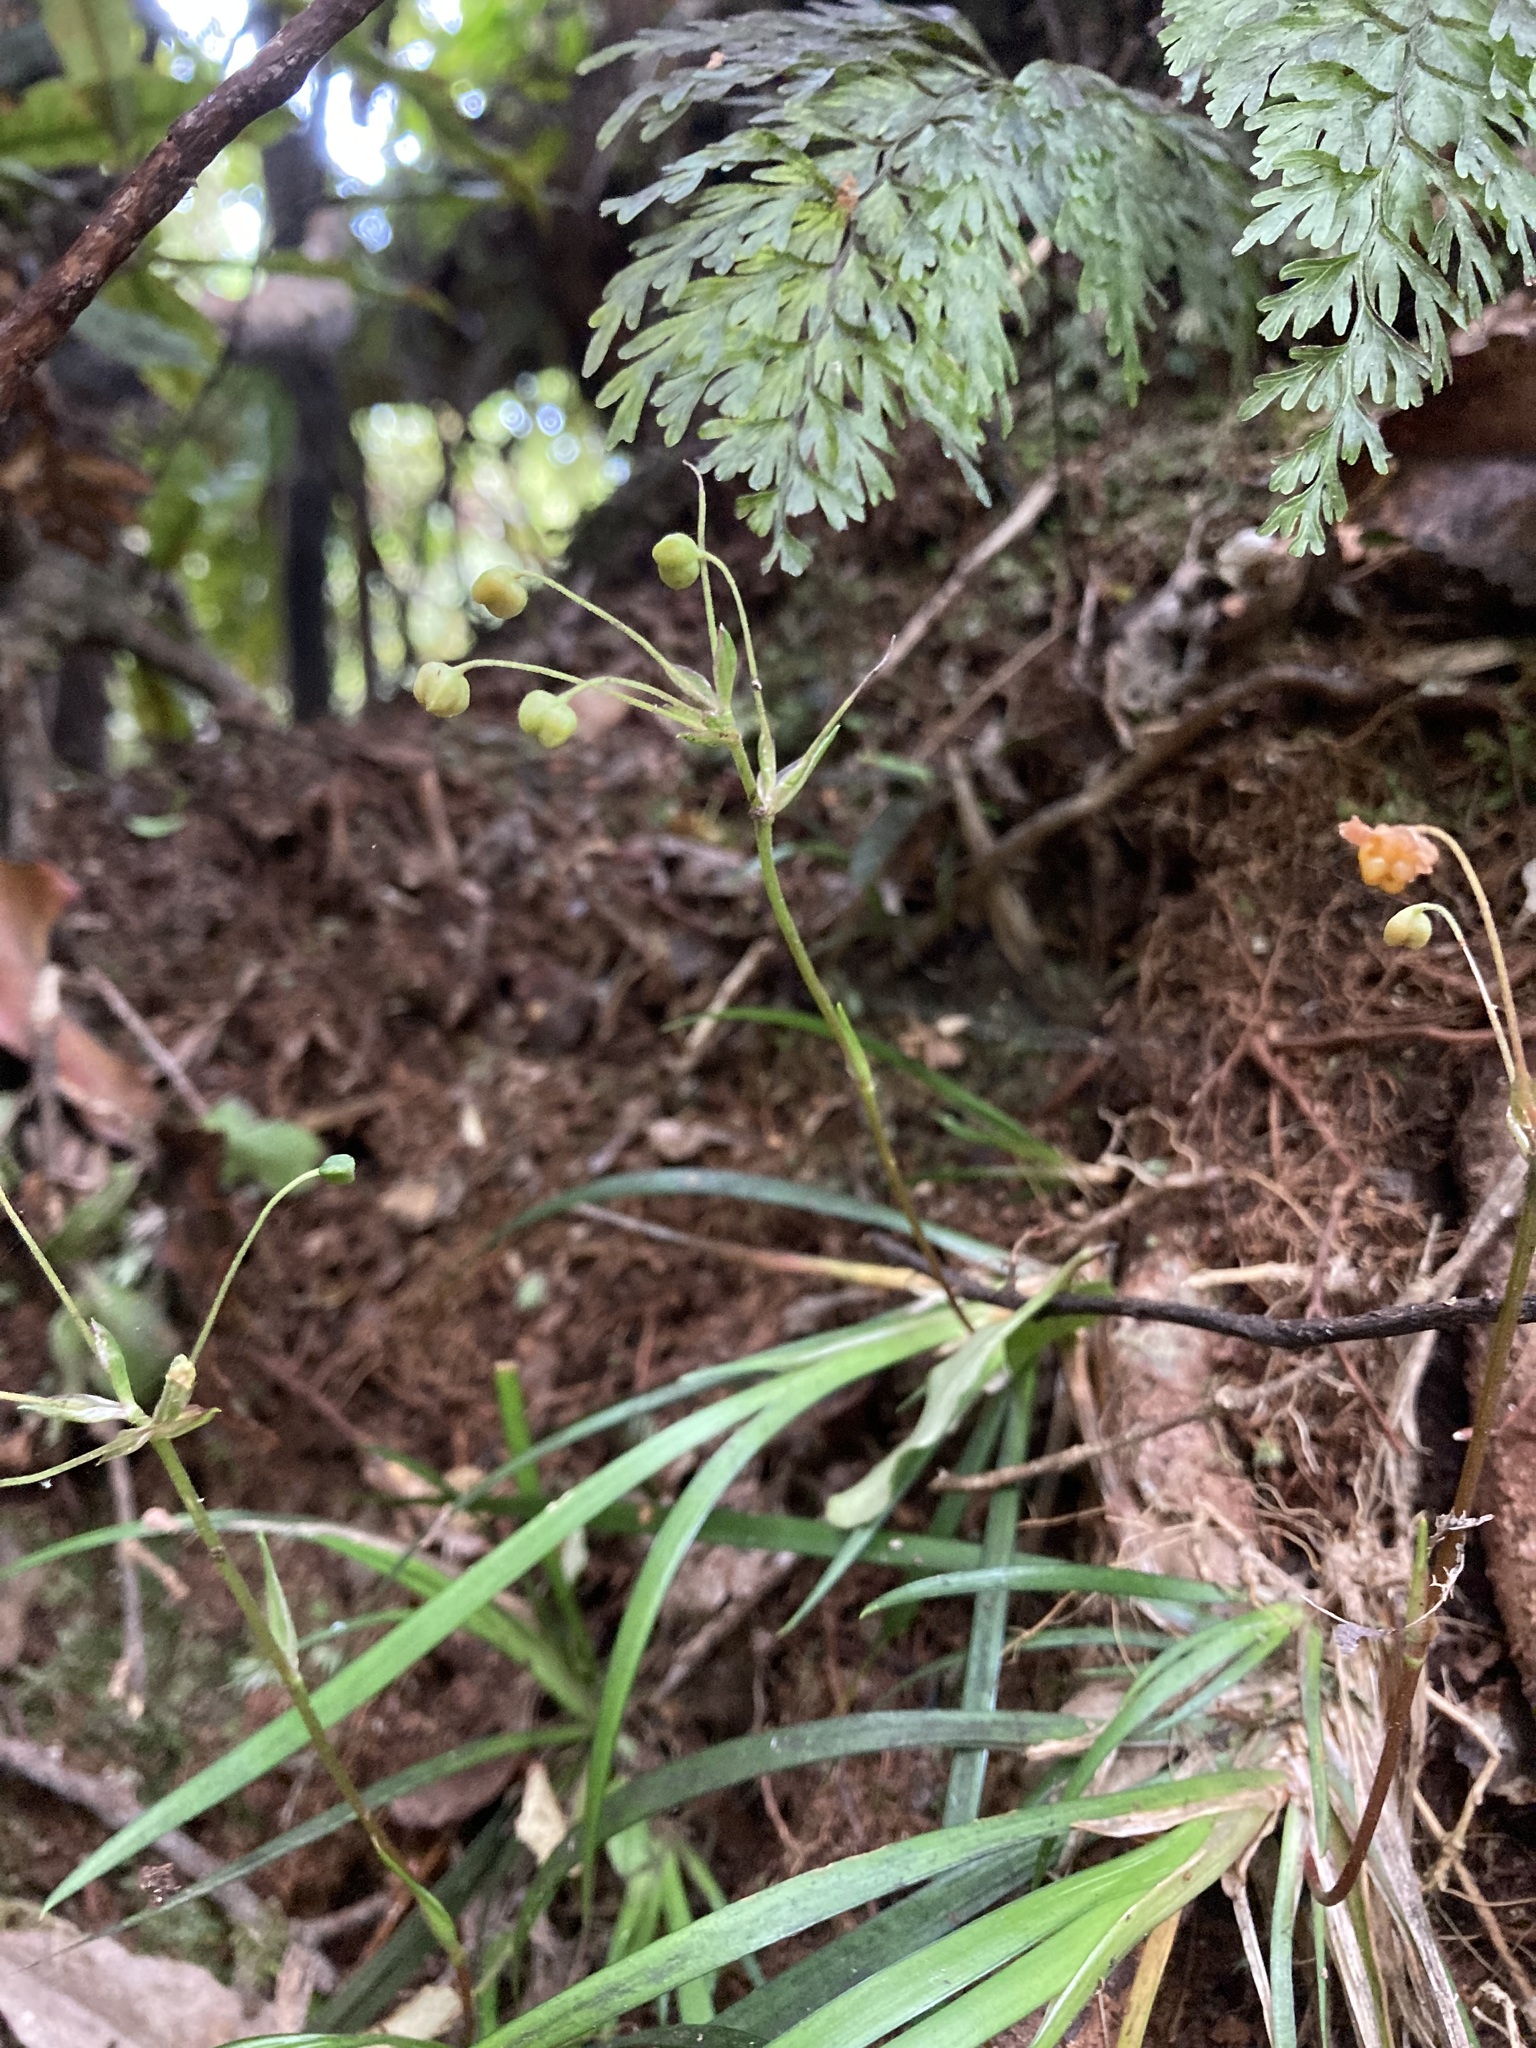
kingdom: Plantae
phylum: Tracheophyta
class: Liliopsida
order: Asparagales
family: Iridaceae
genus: Libertia
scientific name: Libertia micrantha
